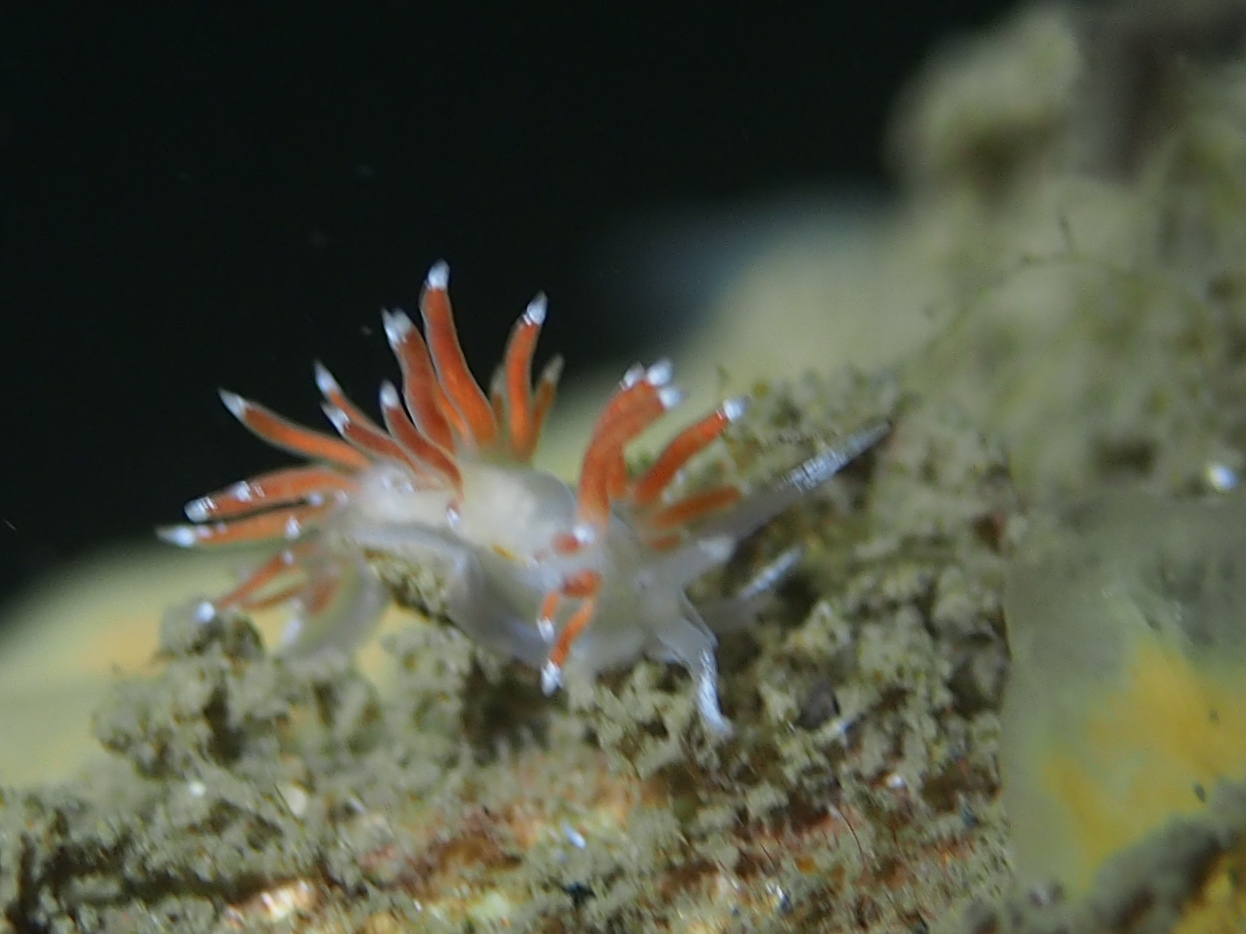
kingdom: Animalia
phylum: Mollusca
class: Gastropoda
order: Nudibranchia
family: Coryphellidae
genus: Coryphella
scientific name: Coryphella gracilis
